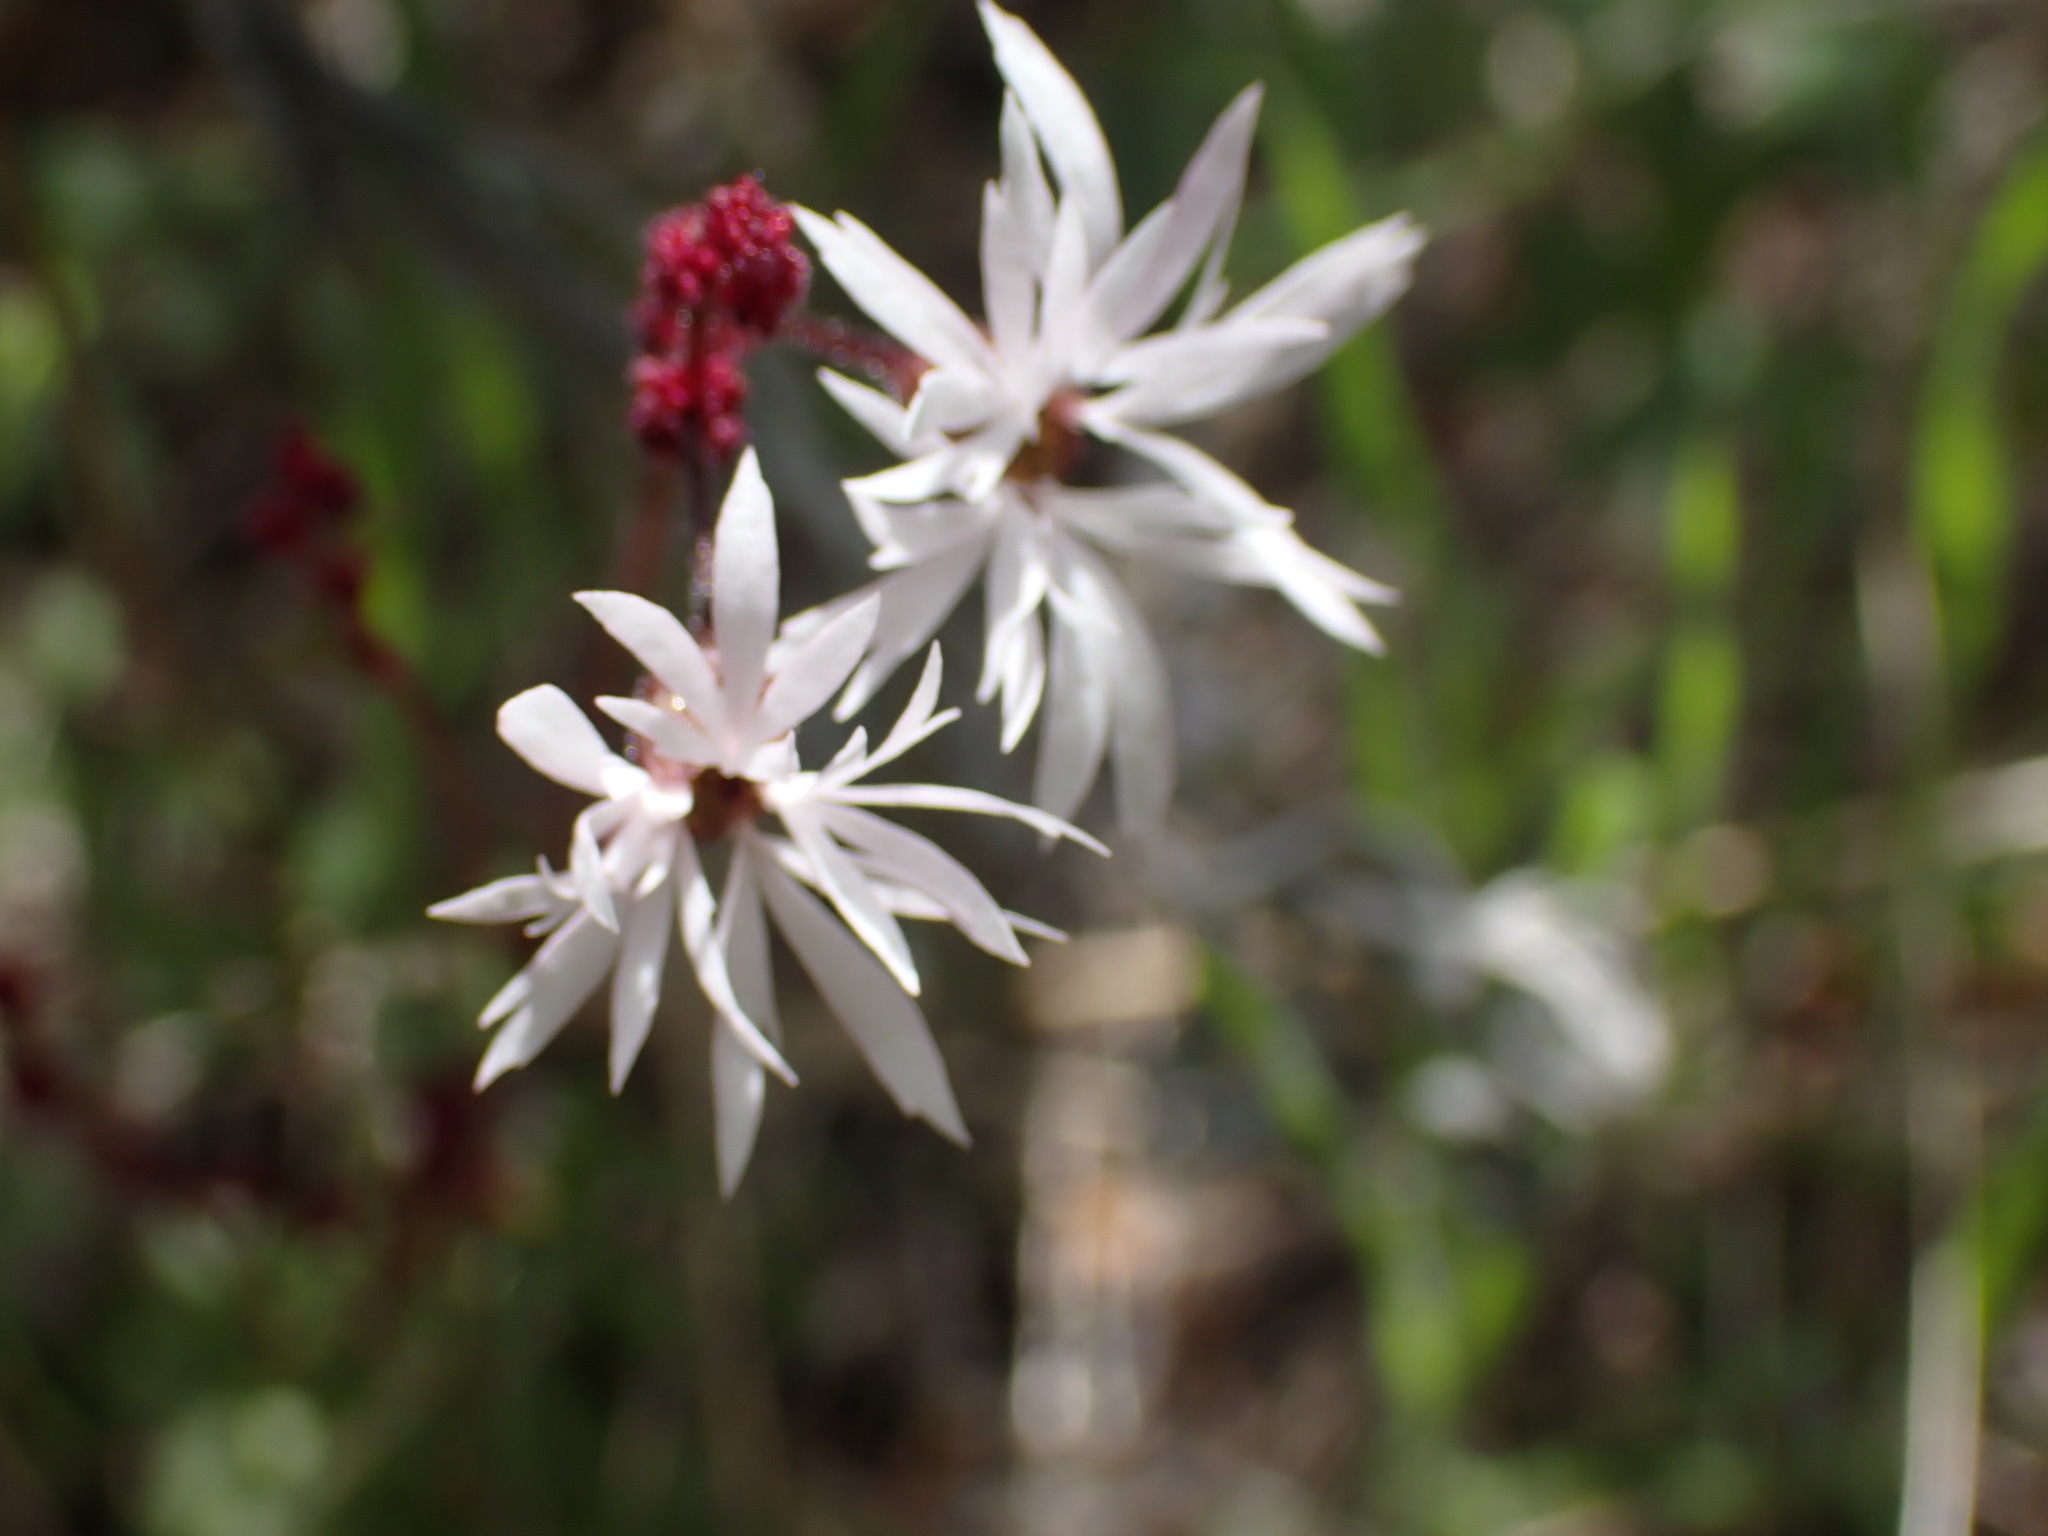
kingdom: Plantae
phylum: Tracheophyta
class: Magnoliopsida
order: Saxifragales
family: Saxifragaceae
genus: Lithophragma
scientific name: Lithophragma glabrum
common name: Bulbous prairie-star
